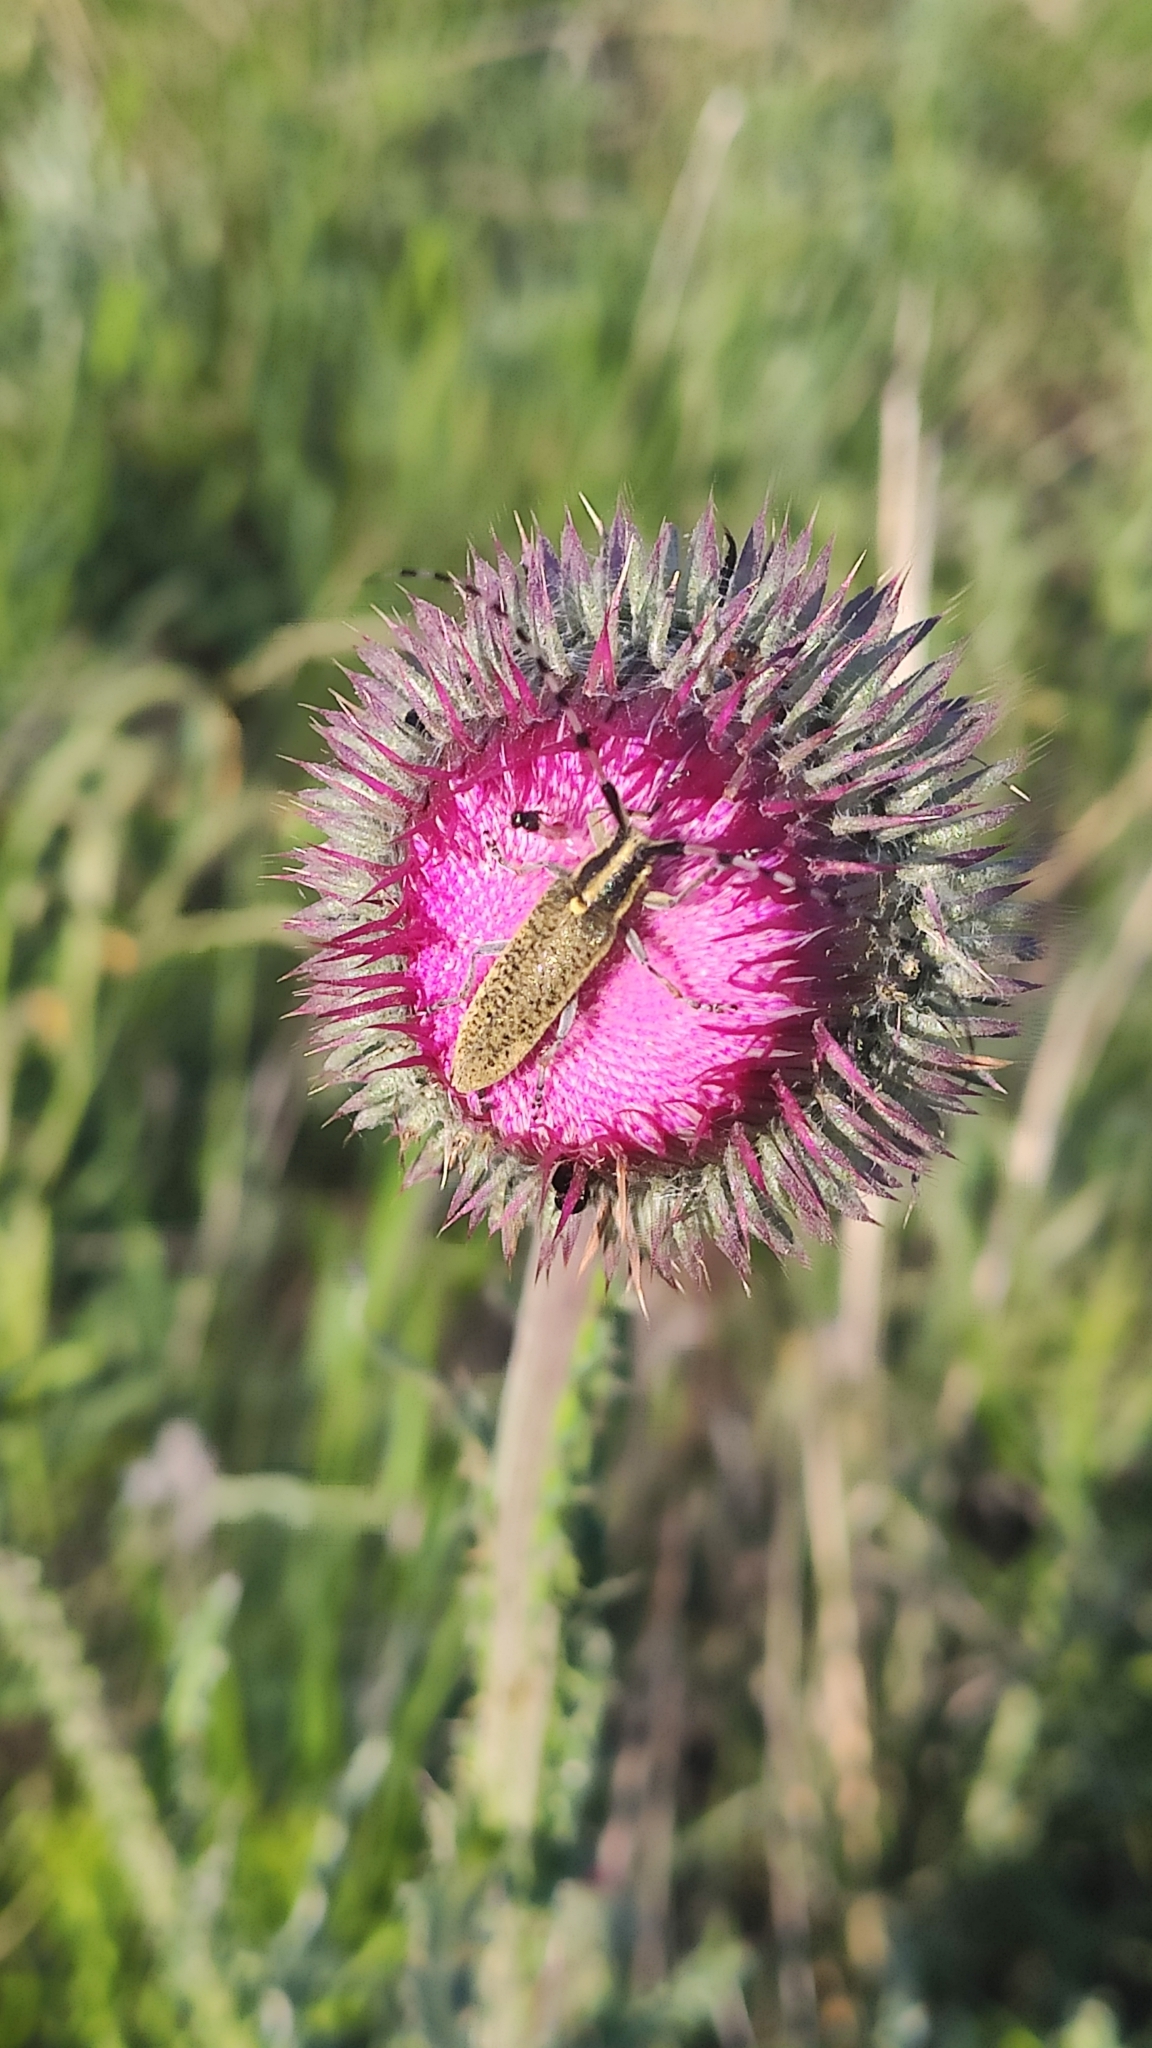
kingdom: Animalia
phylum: Arthropoda
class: Insecta
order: Coleoptera
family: Cerambycidae
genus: Agapanthia
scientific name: Agapanthia dahlii
